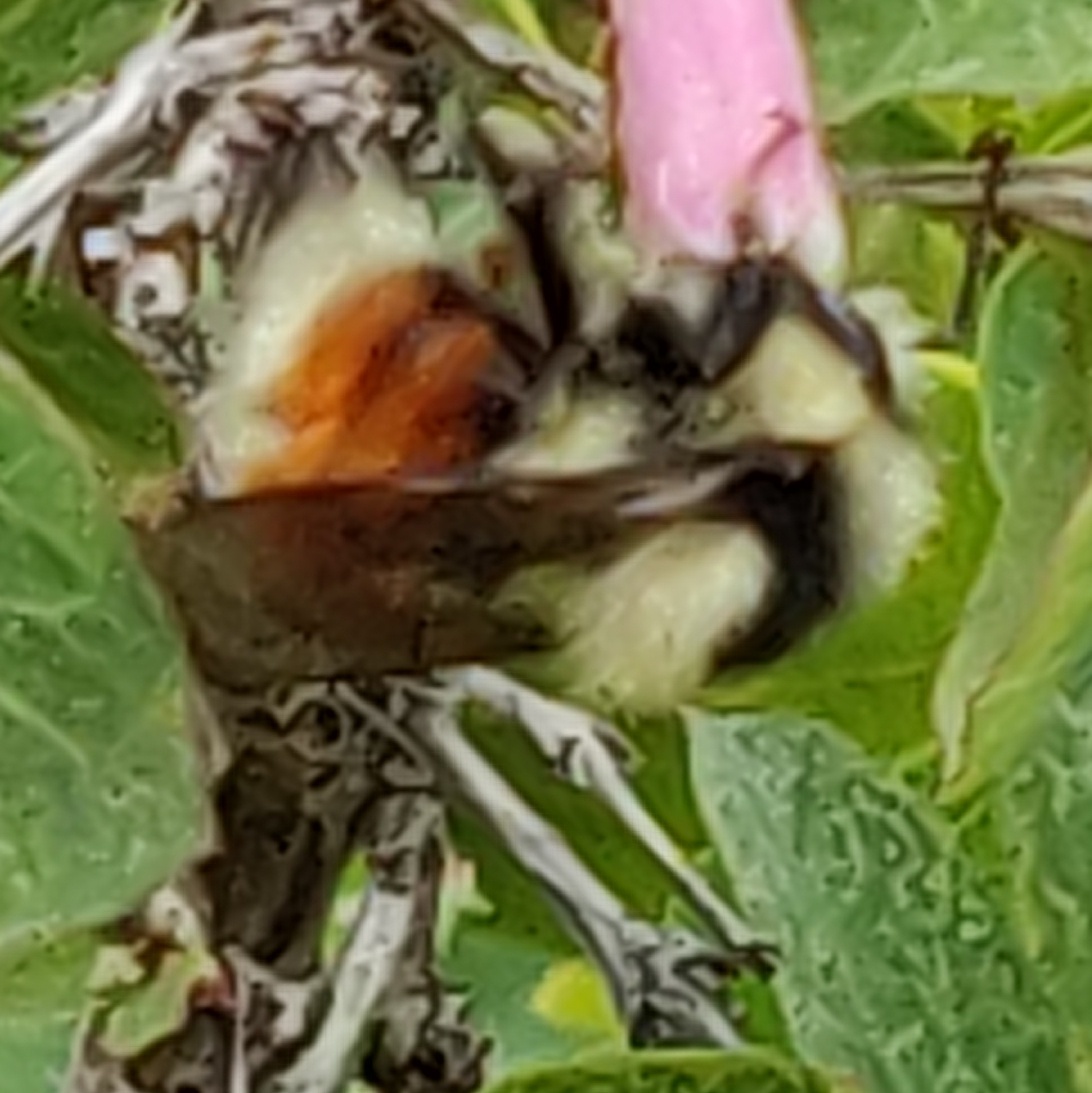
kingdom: Animalia
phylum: Arthropoda
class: Insecta
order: Hymenoptera
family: Apidae
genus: Bombus
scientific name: Bombus huntii
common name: Hunt bumble bee
